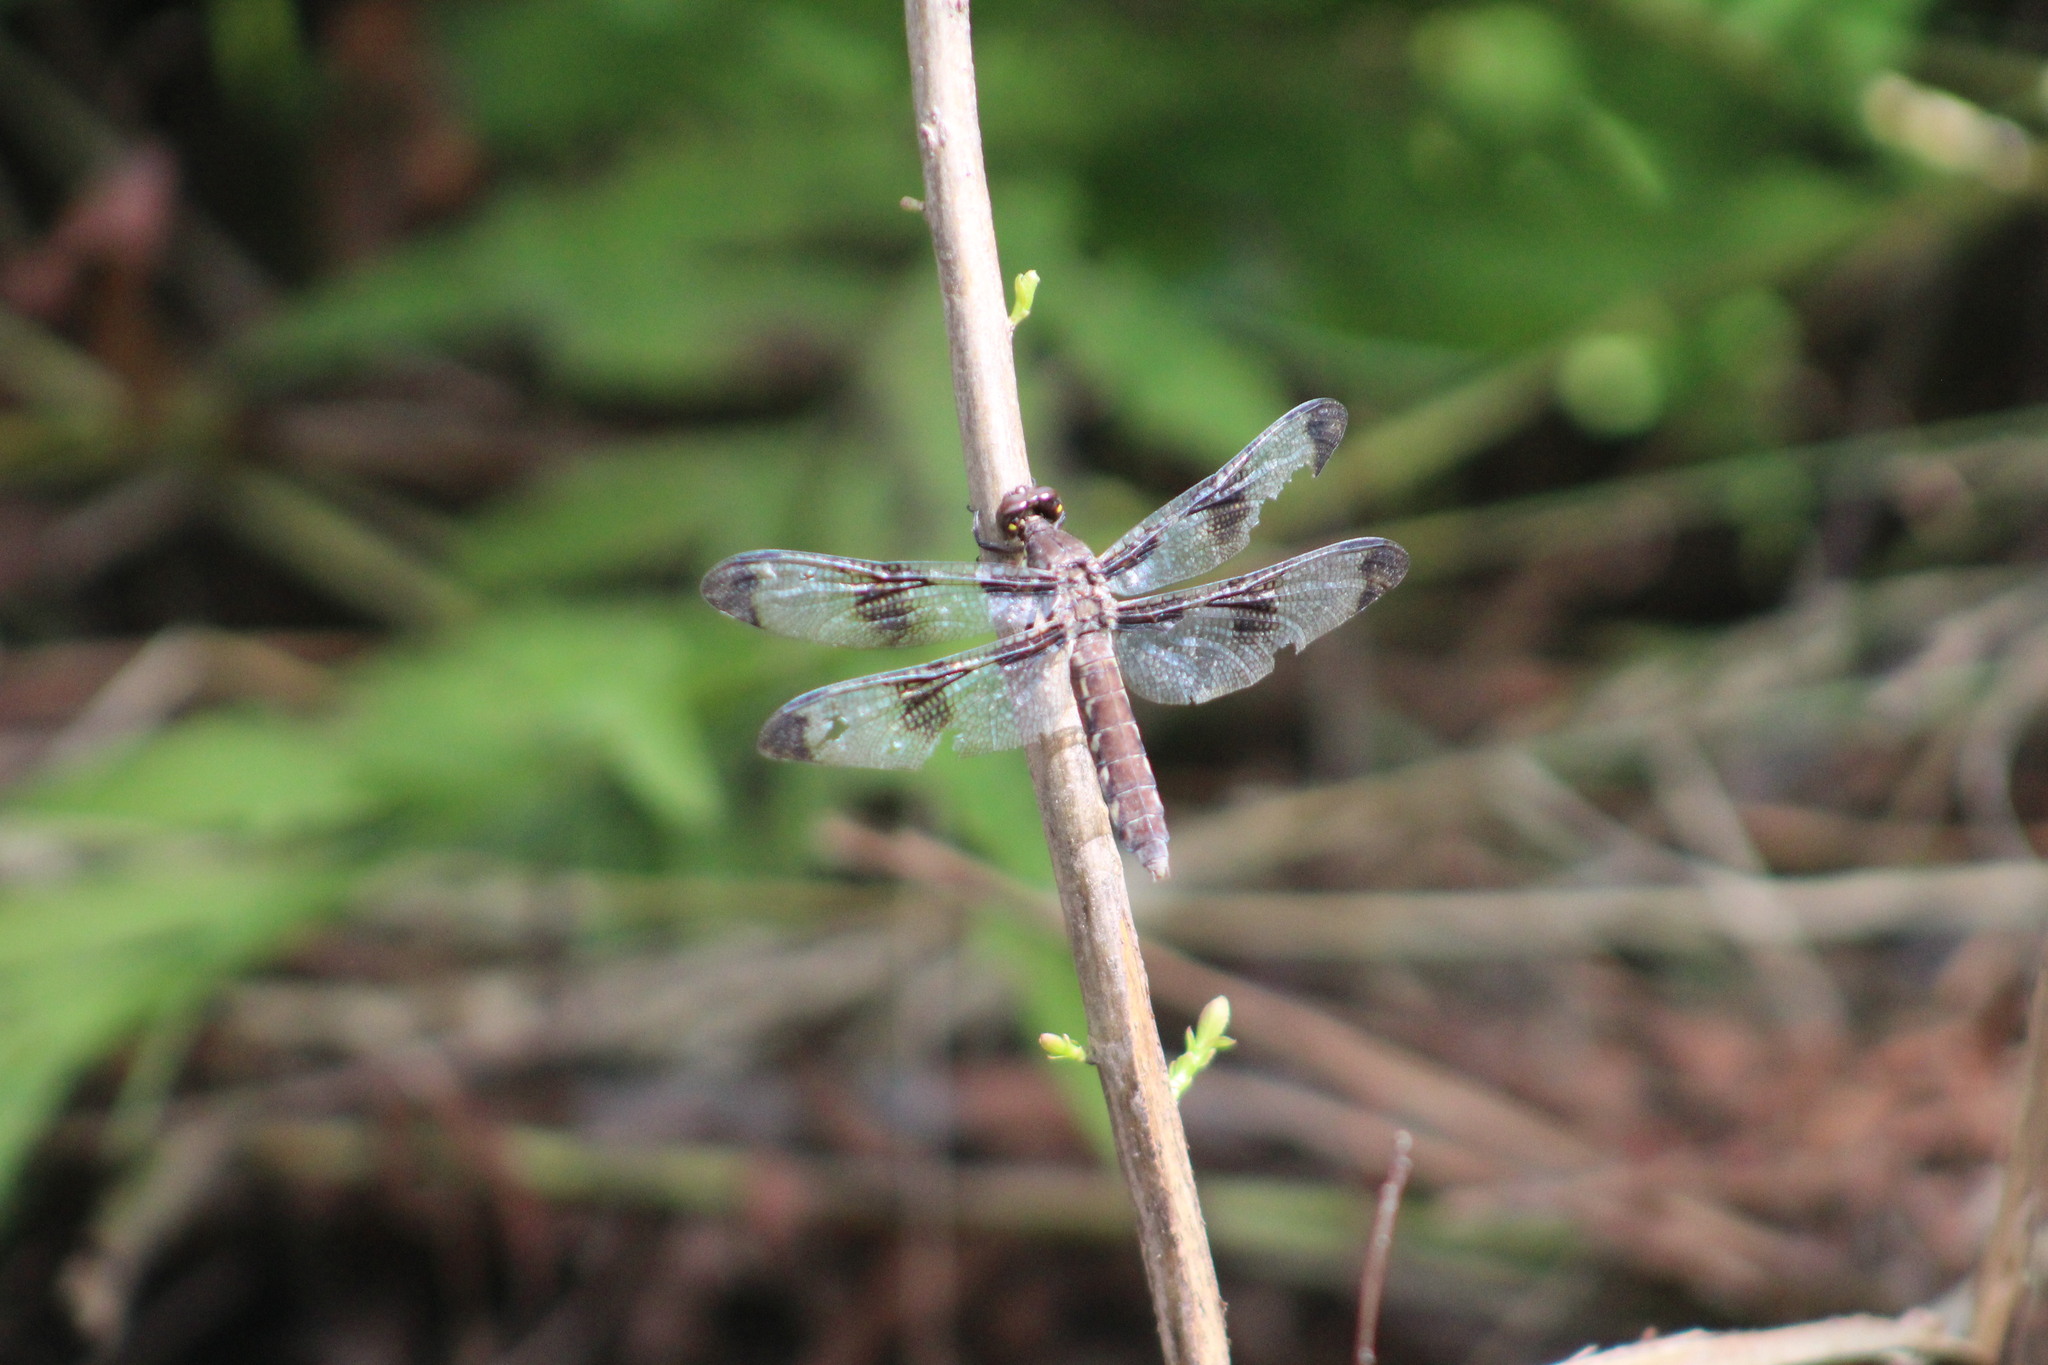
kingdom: Animalia
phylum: Arthropoda
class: Insecta
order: Odonata
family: Libellulidae
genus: Plathemis
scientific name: Plathemis lydia
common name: Common whitetail
